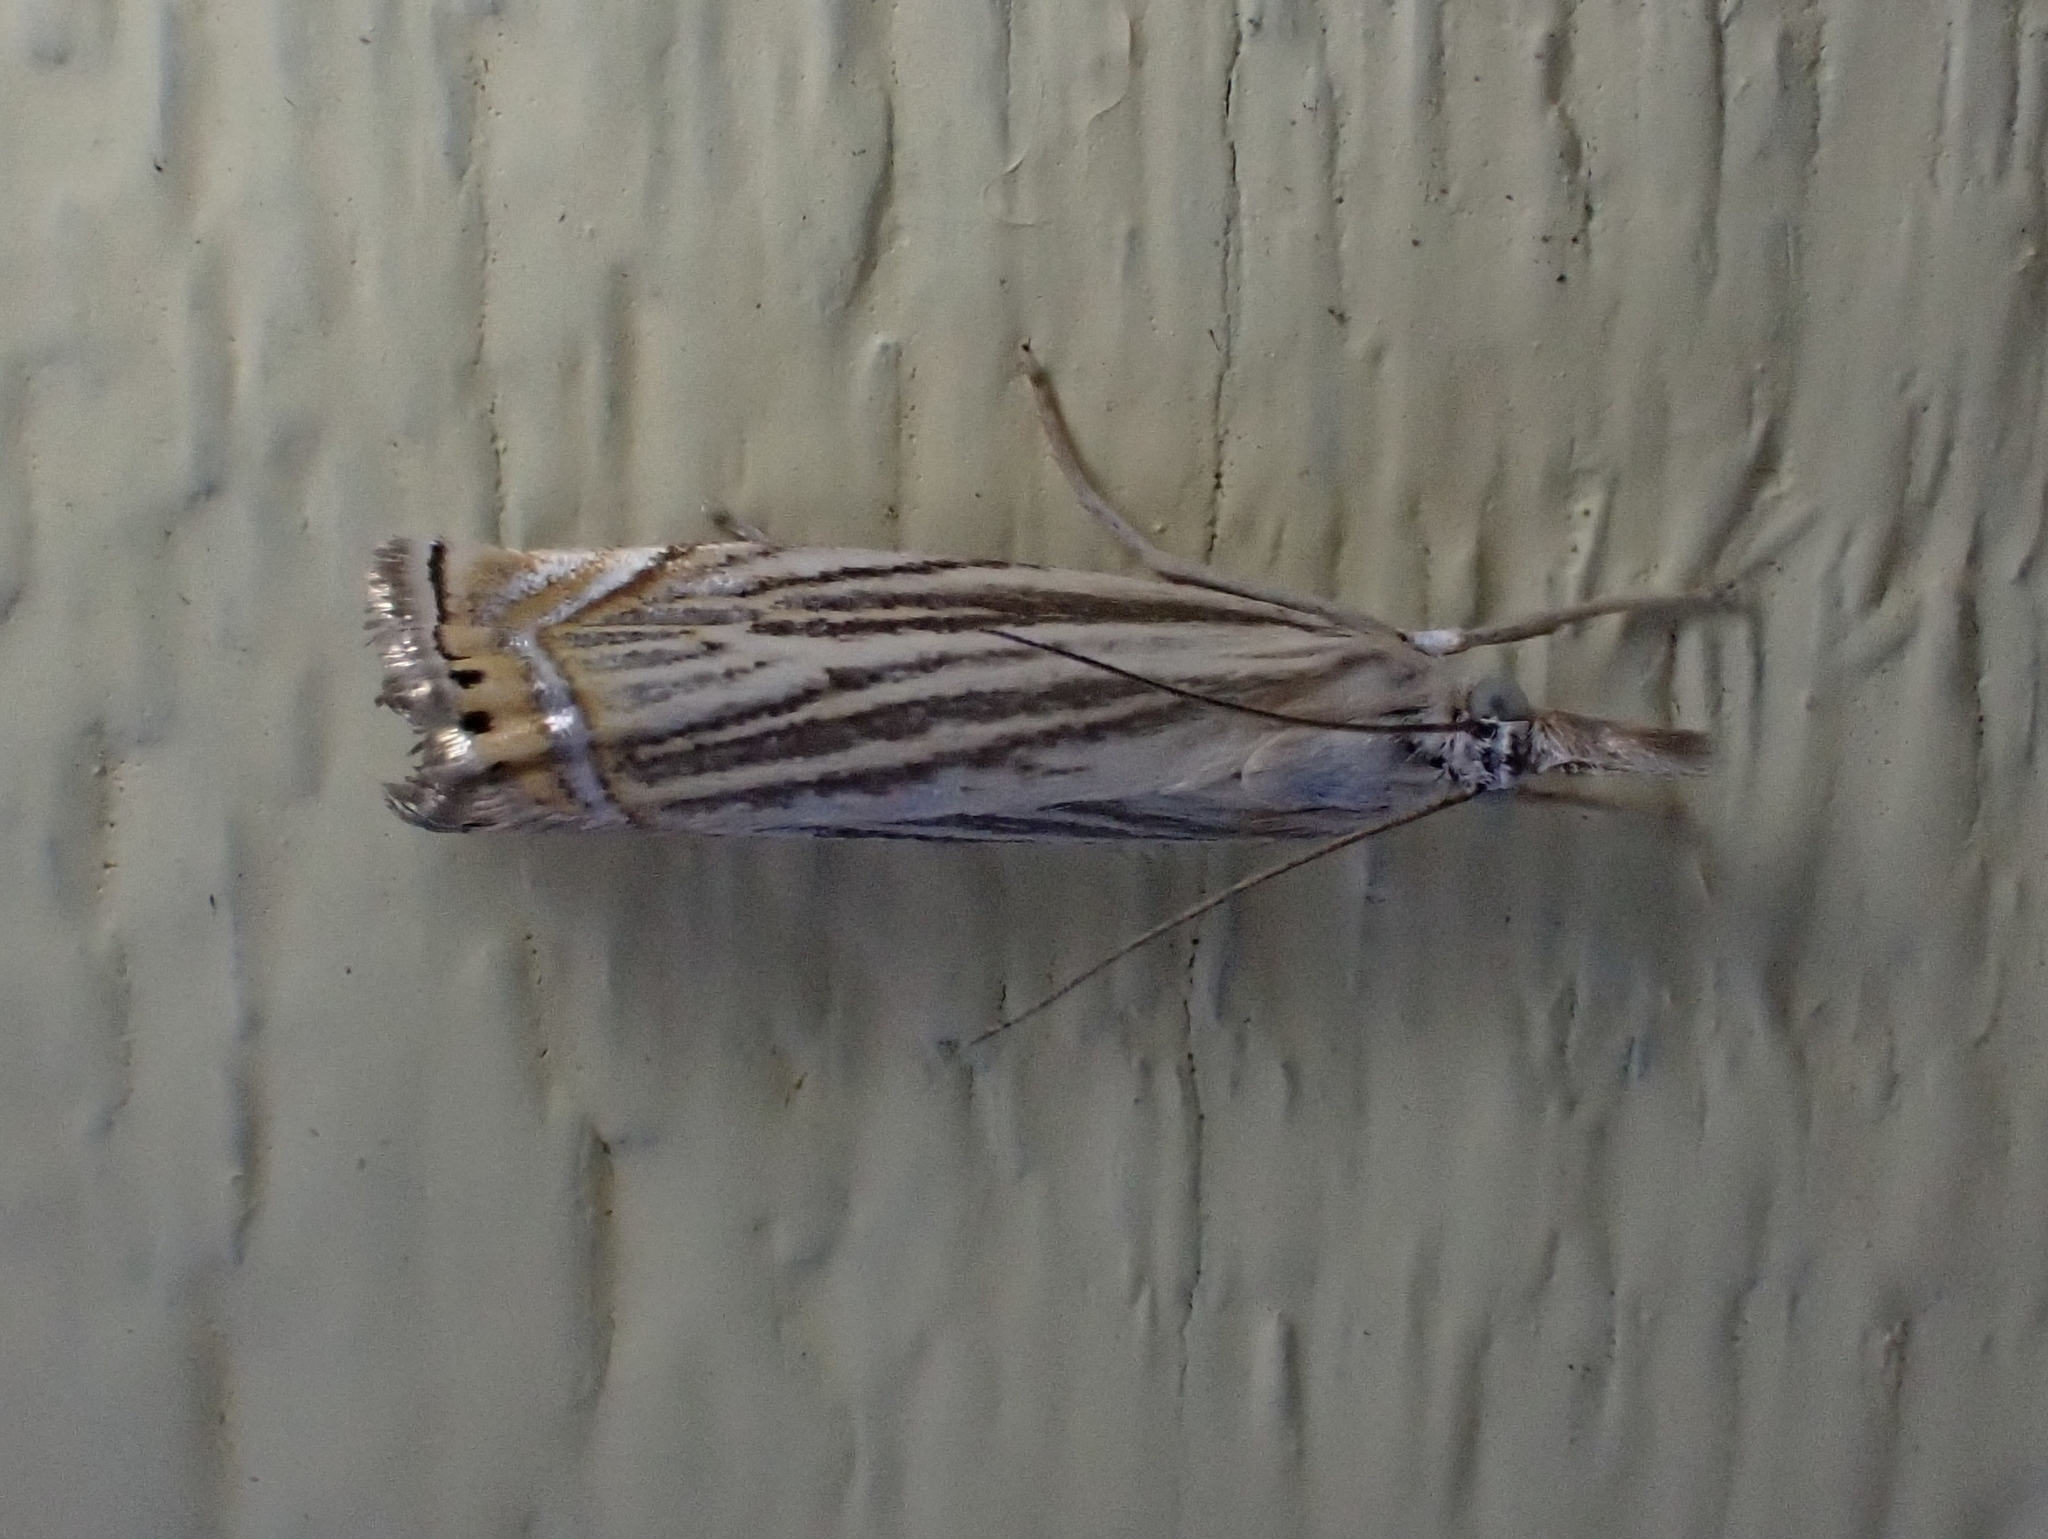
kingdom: Animalia
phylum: Arthropoda
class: Insecta
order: Lepidoptera
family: Crambidae
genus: Chrysoteuchia
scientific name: Chrysoteuchia topiarius
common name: Topiary grass-veneer
